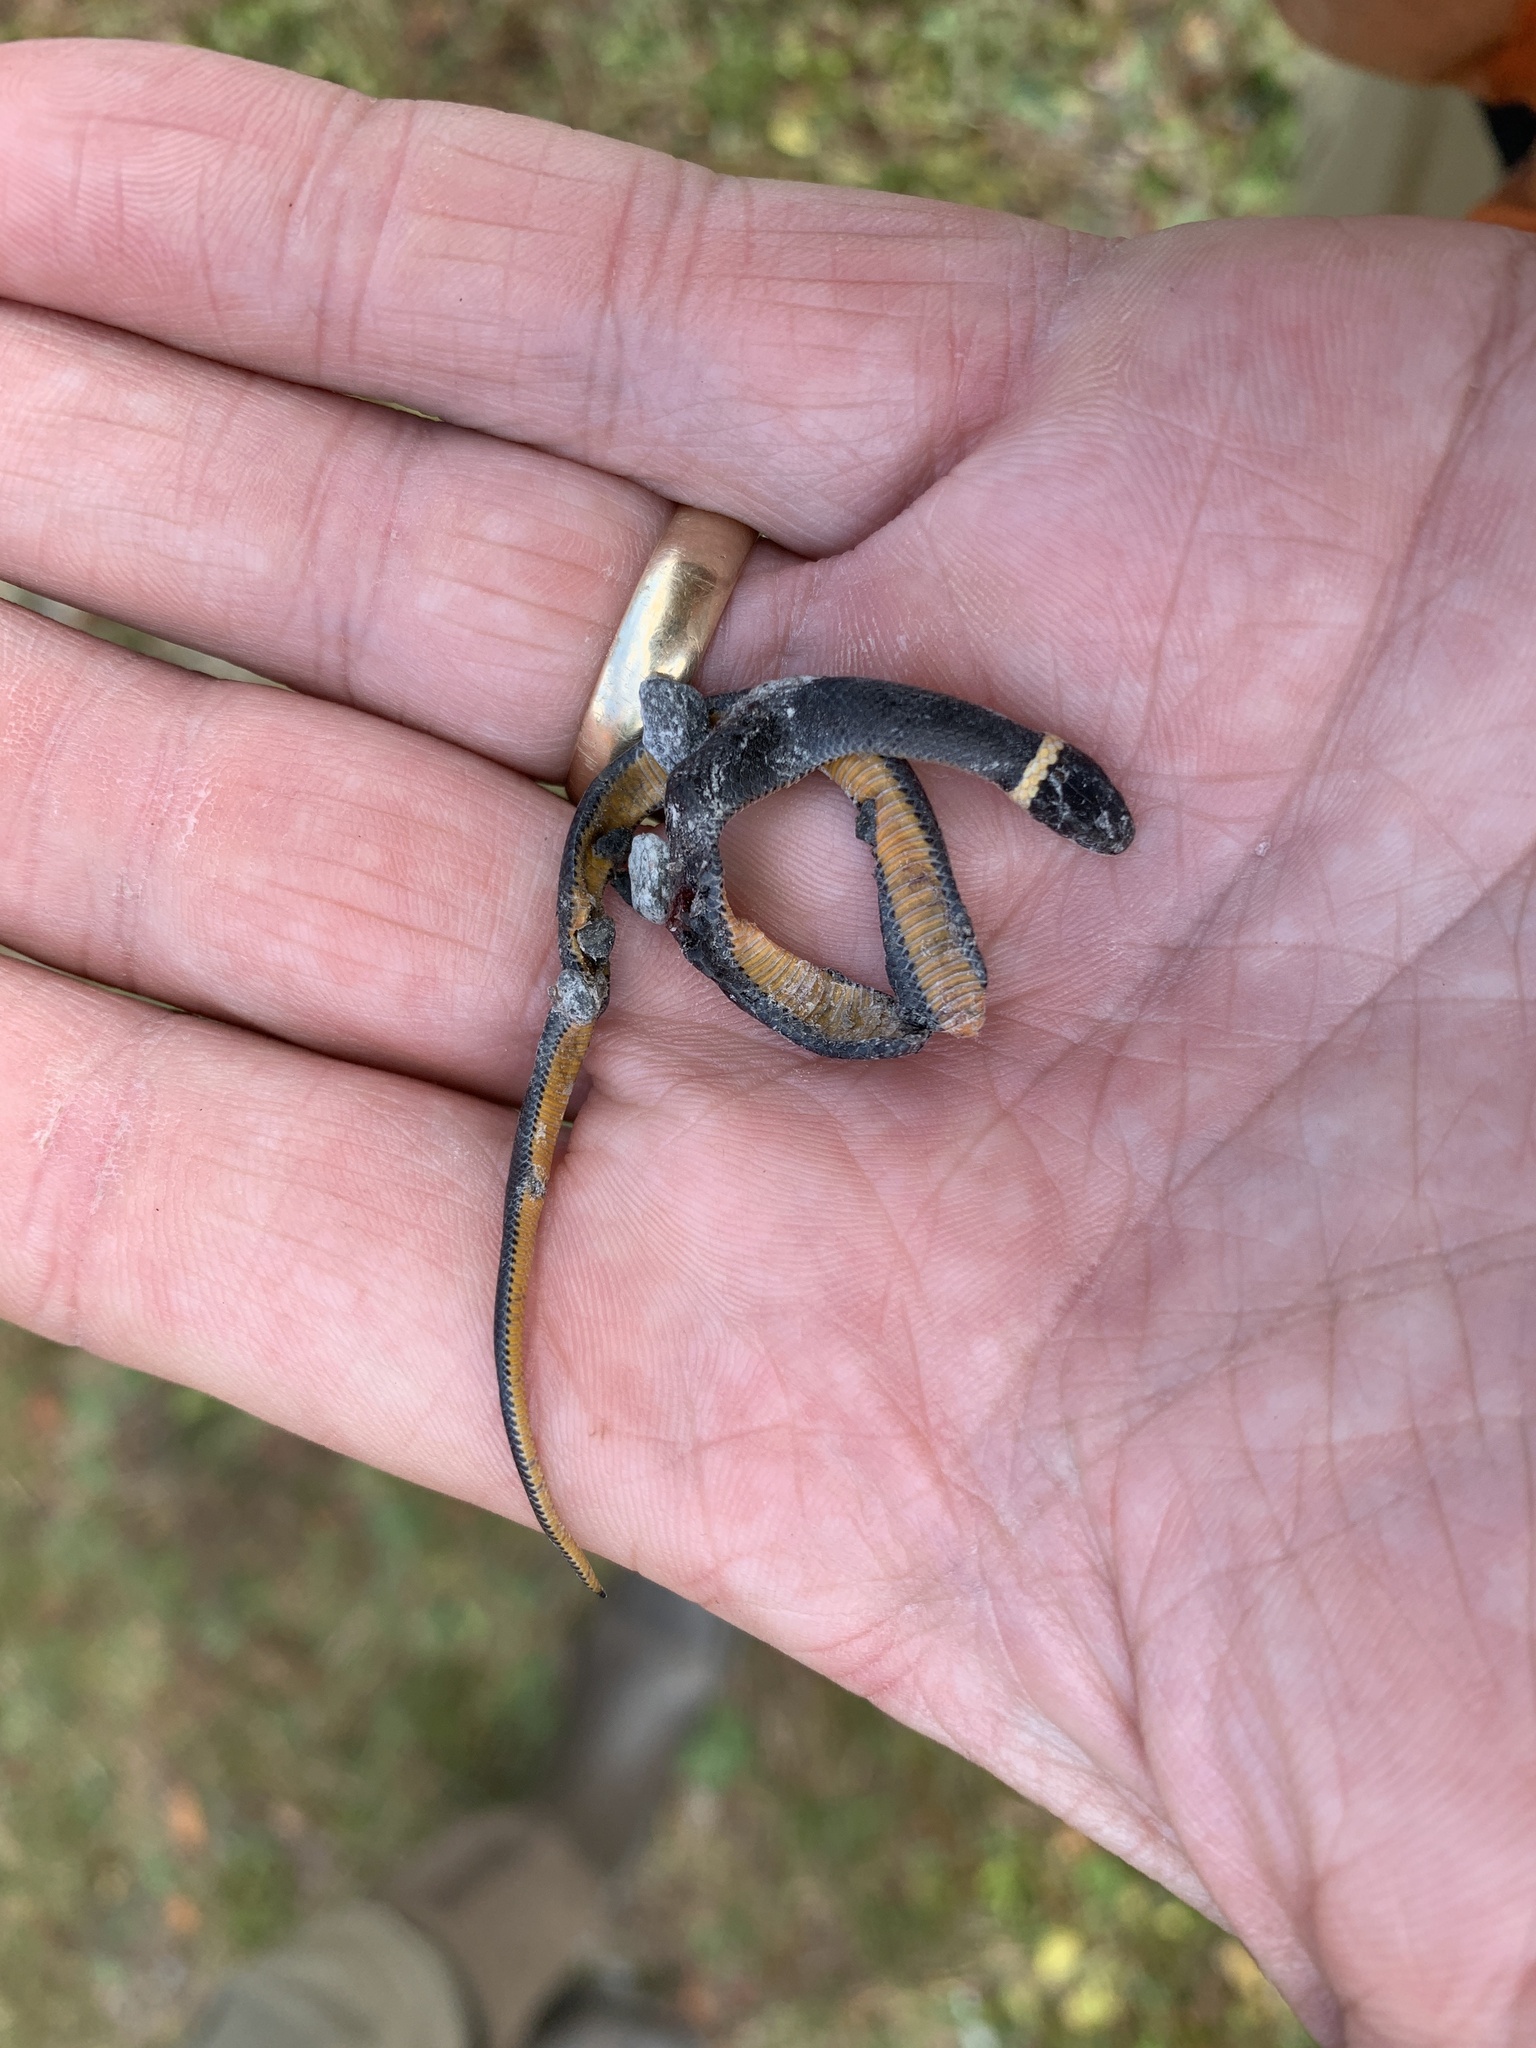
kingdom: Animalia
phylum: Chordata
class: Squamata
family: Colubridae
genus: Diadophis
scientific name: Diadophis punctatus
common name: Ringneck snake
